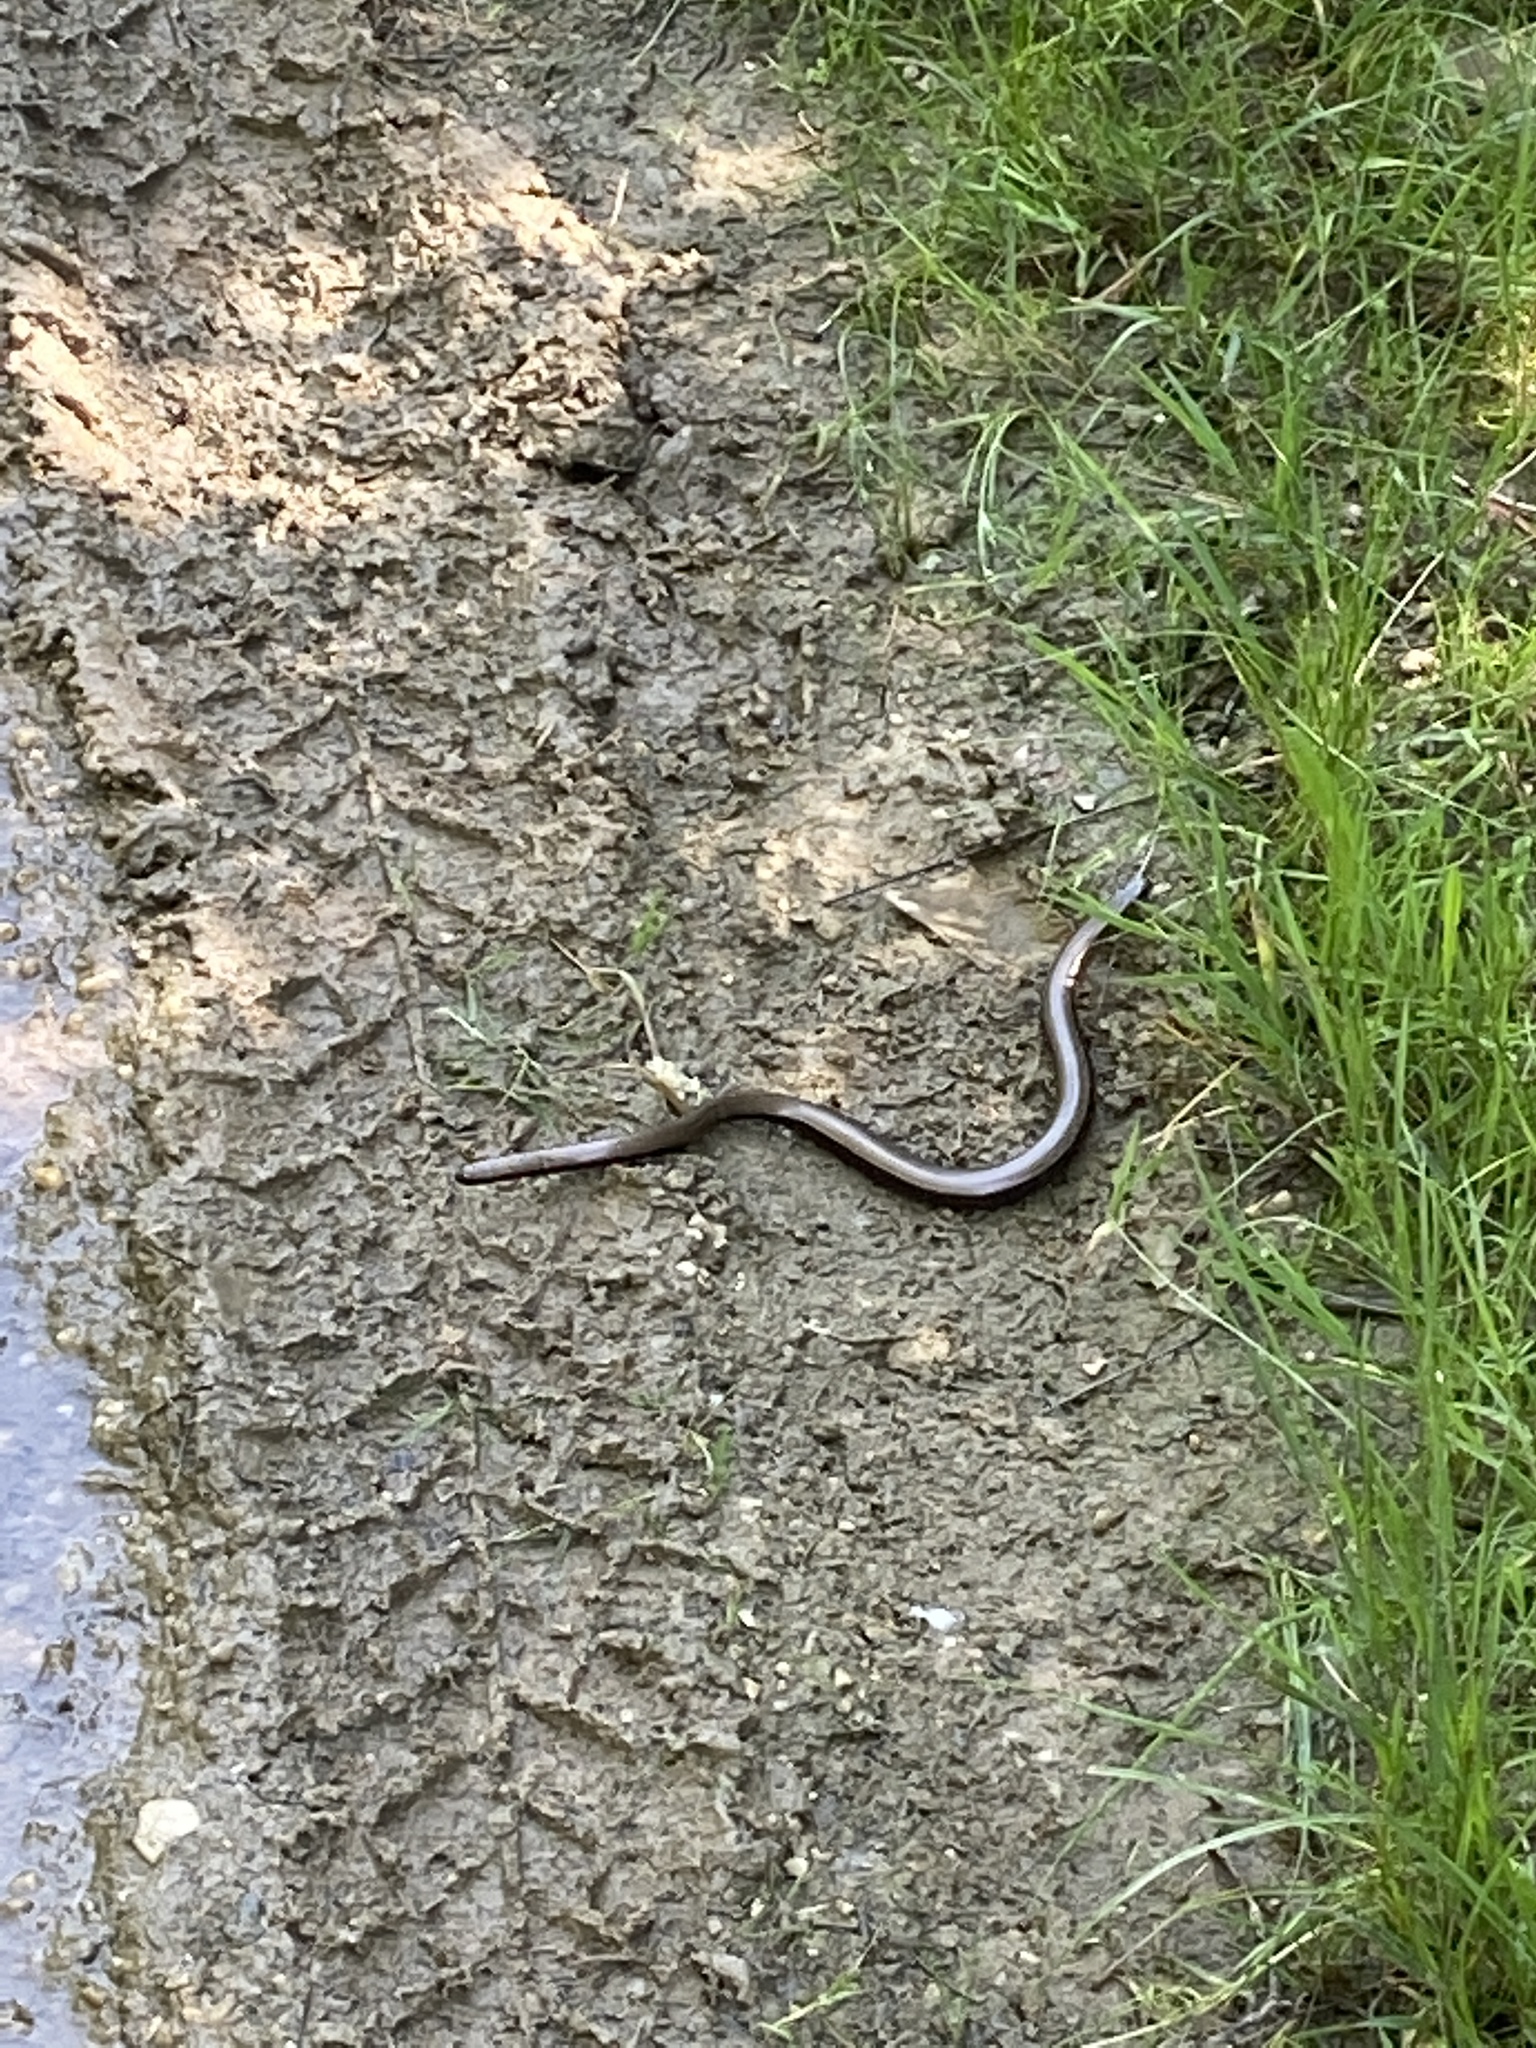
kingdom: Animalia
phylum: Chordata
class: Squamata
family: Anguidae
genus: Anguis
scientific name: Anguis fragilis
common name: Slow worm
